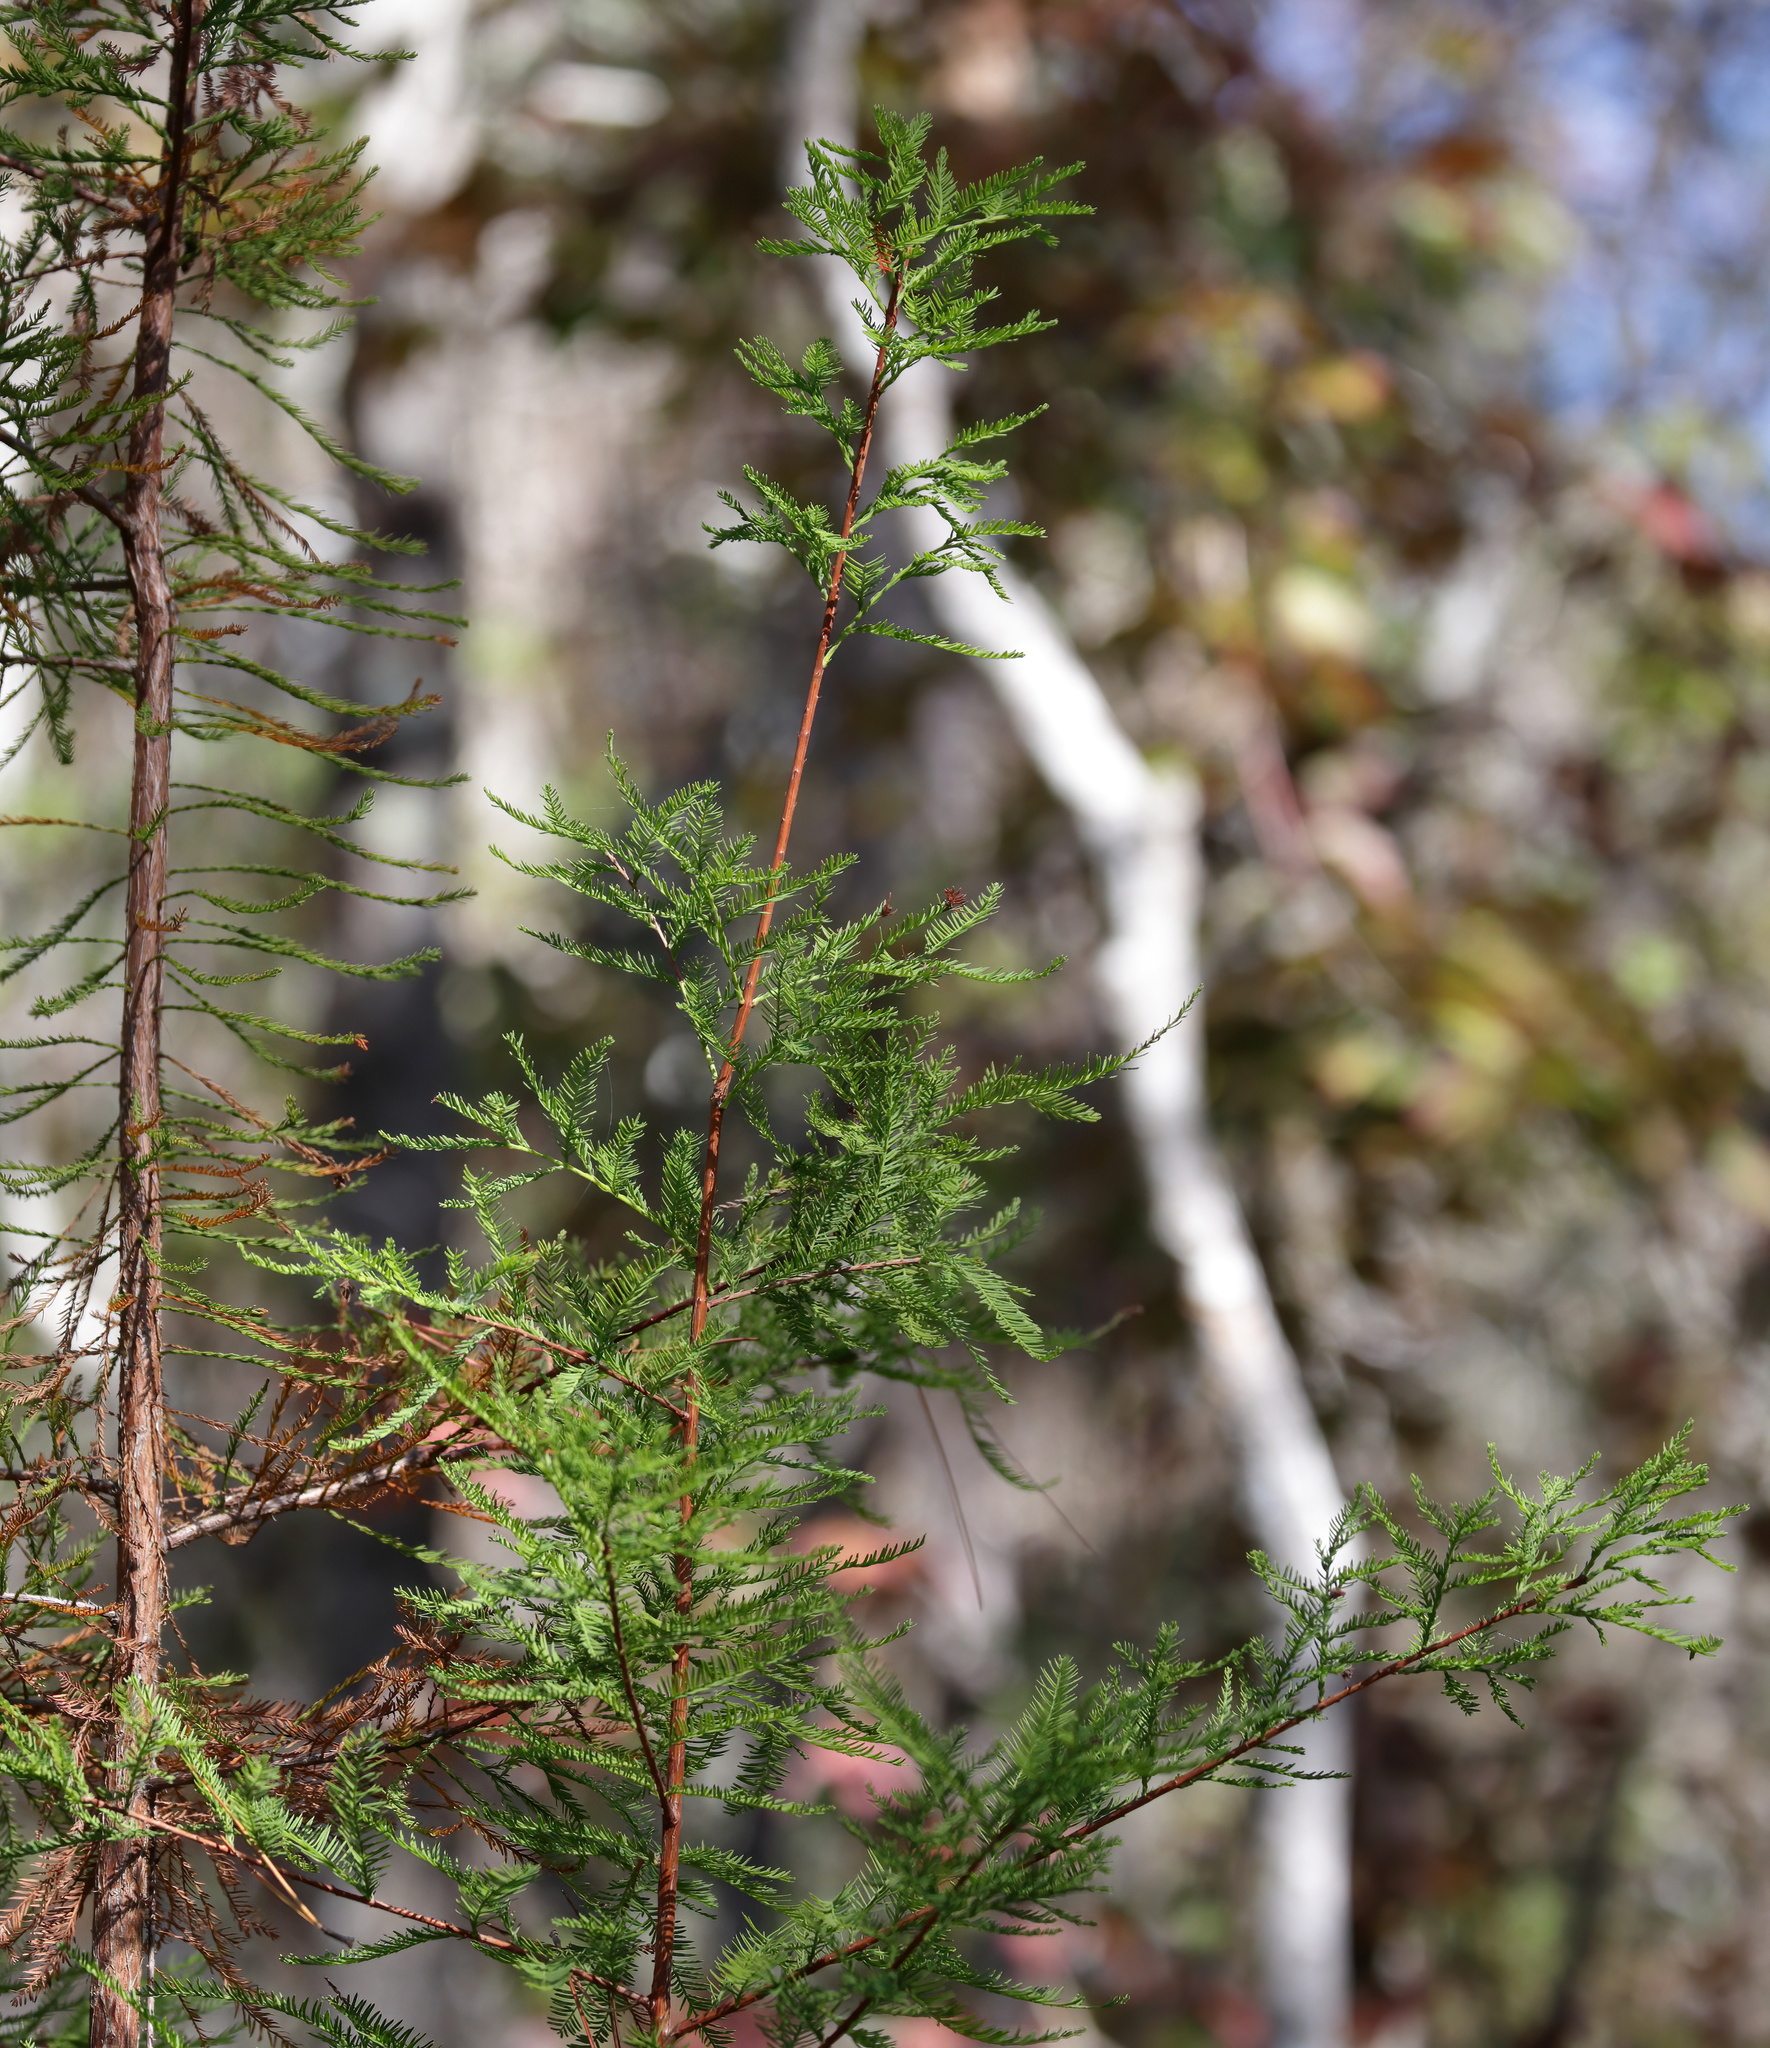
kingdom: Plantae
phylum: Tracheophyta
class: Pinopsida
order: Pinales
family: Cupressaceae
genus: Taxodium
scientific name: Taxodium distichum
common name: Bald cypress
